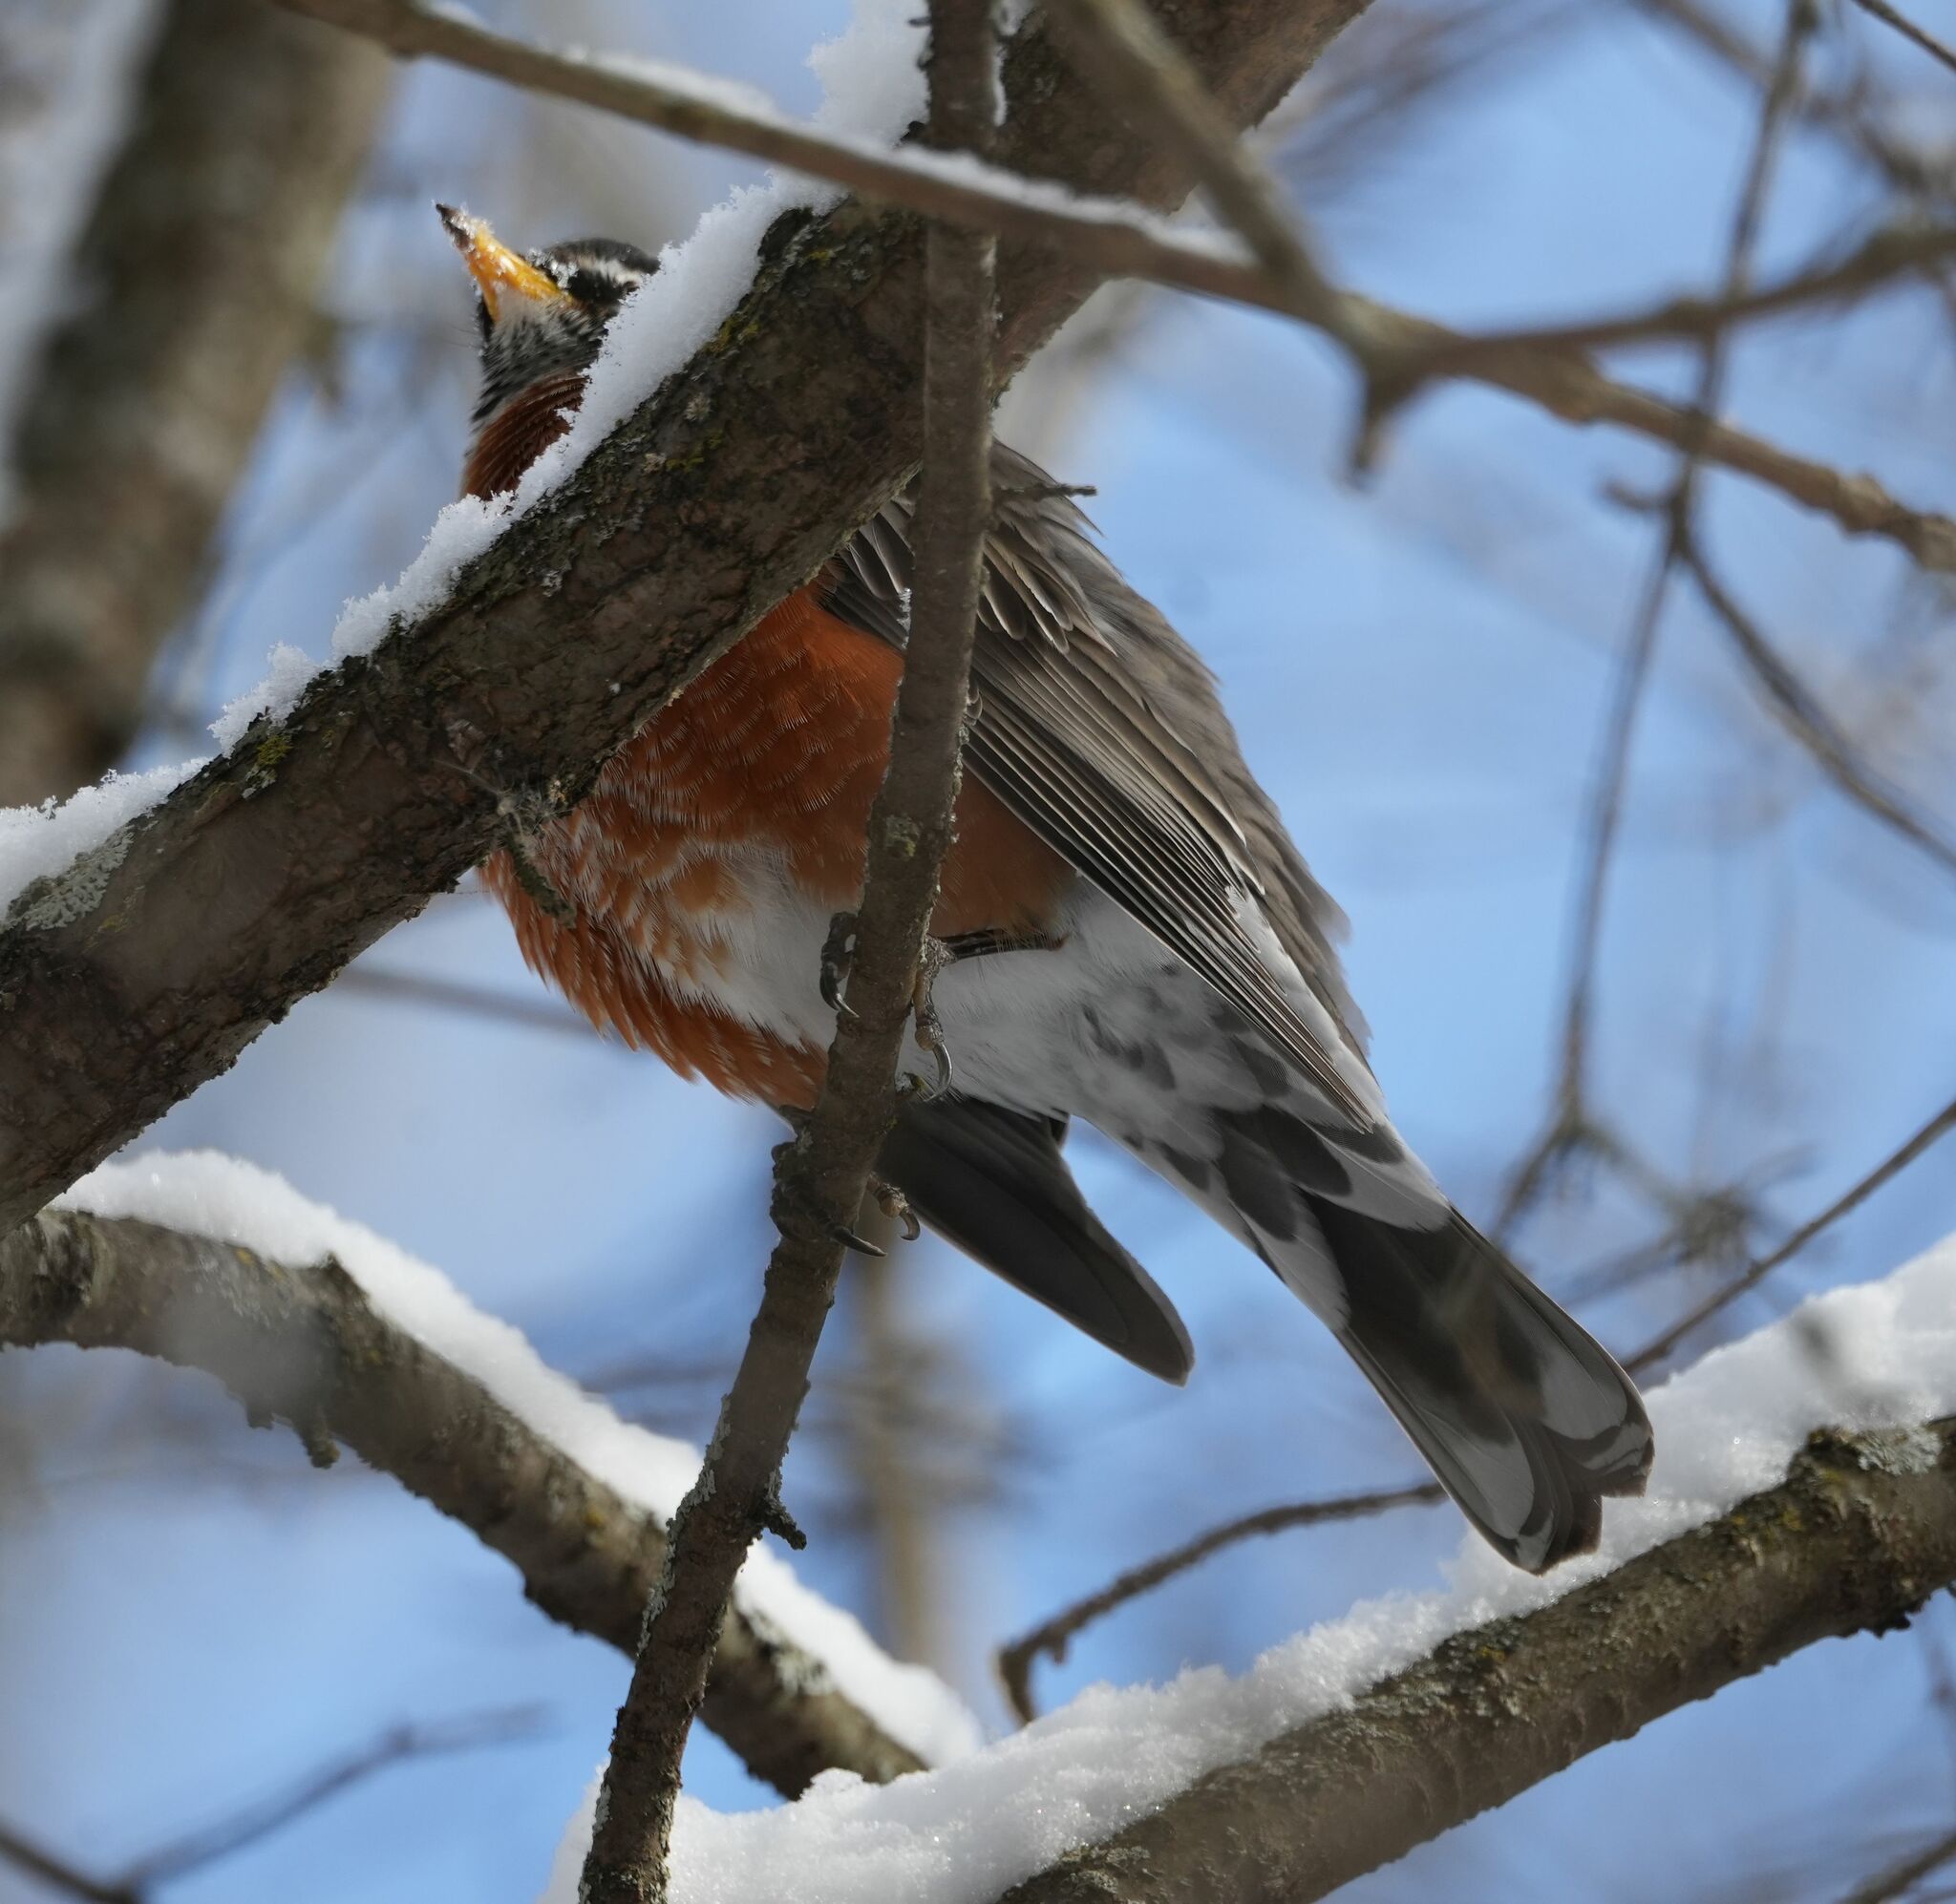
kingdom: Animalia
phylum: Chordata
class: Aves
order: Passeriformes
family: Turdidae
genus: Turdus
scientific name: Turdus migratorius
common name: American robin
